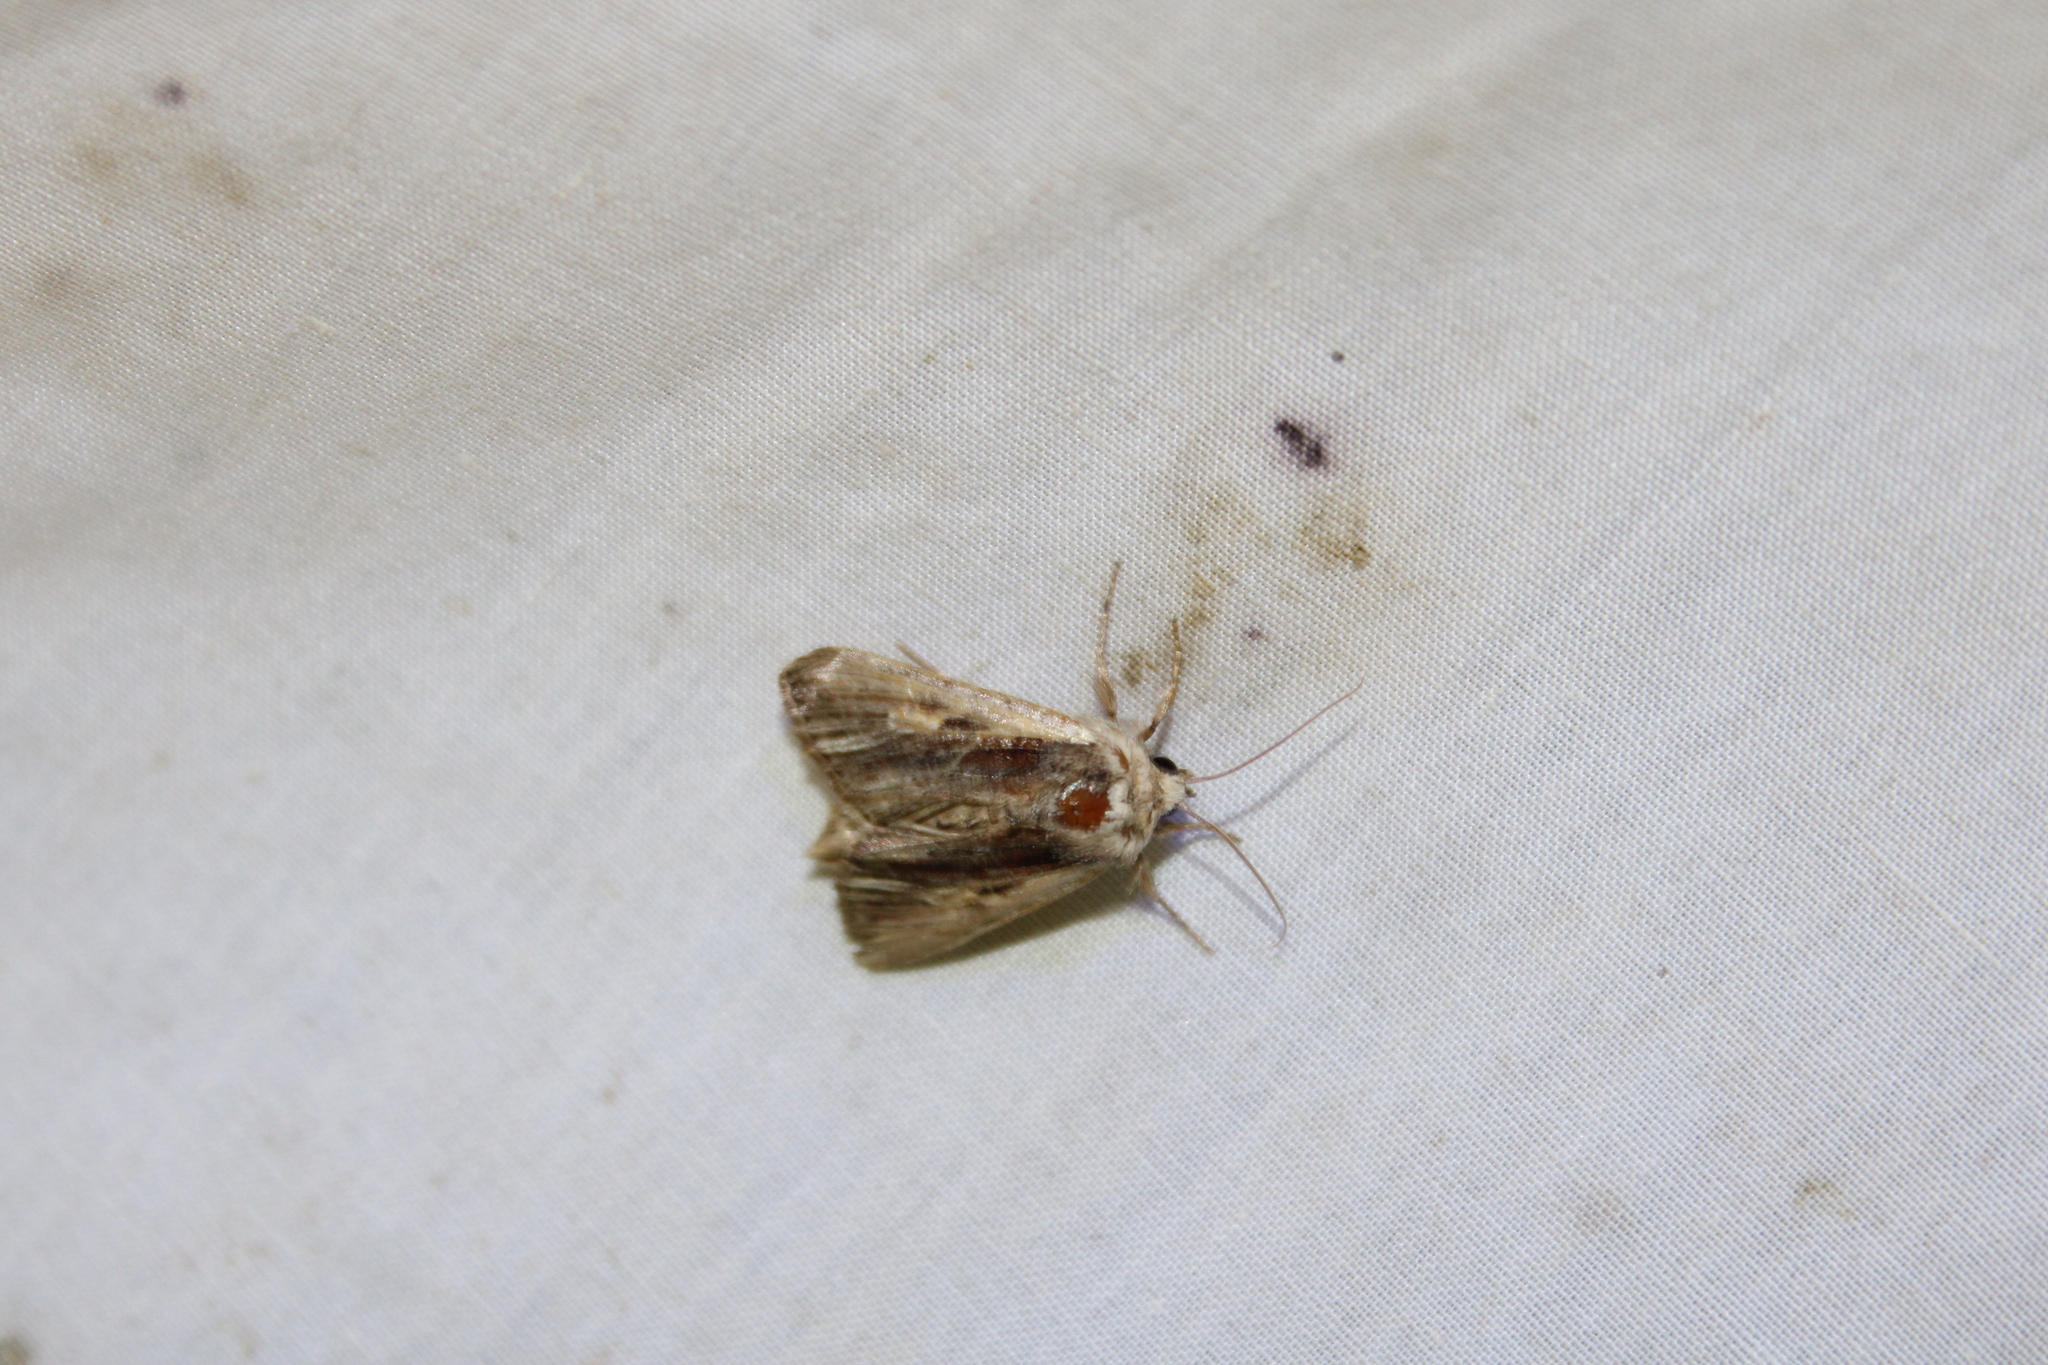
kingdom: Animalia
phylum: Arthropoda
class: Insecta
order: Lepidoptera
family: Noctuidae
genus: Achatia
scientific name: Achatia evicta
